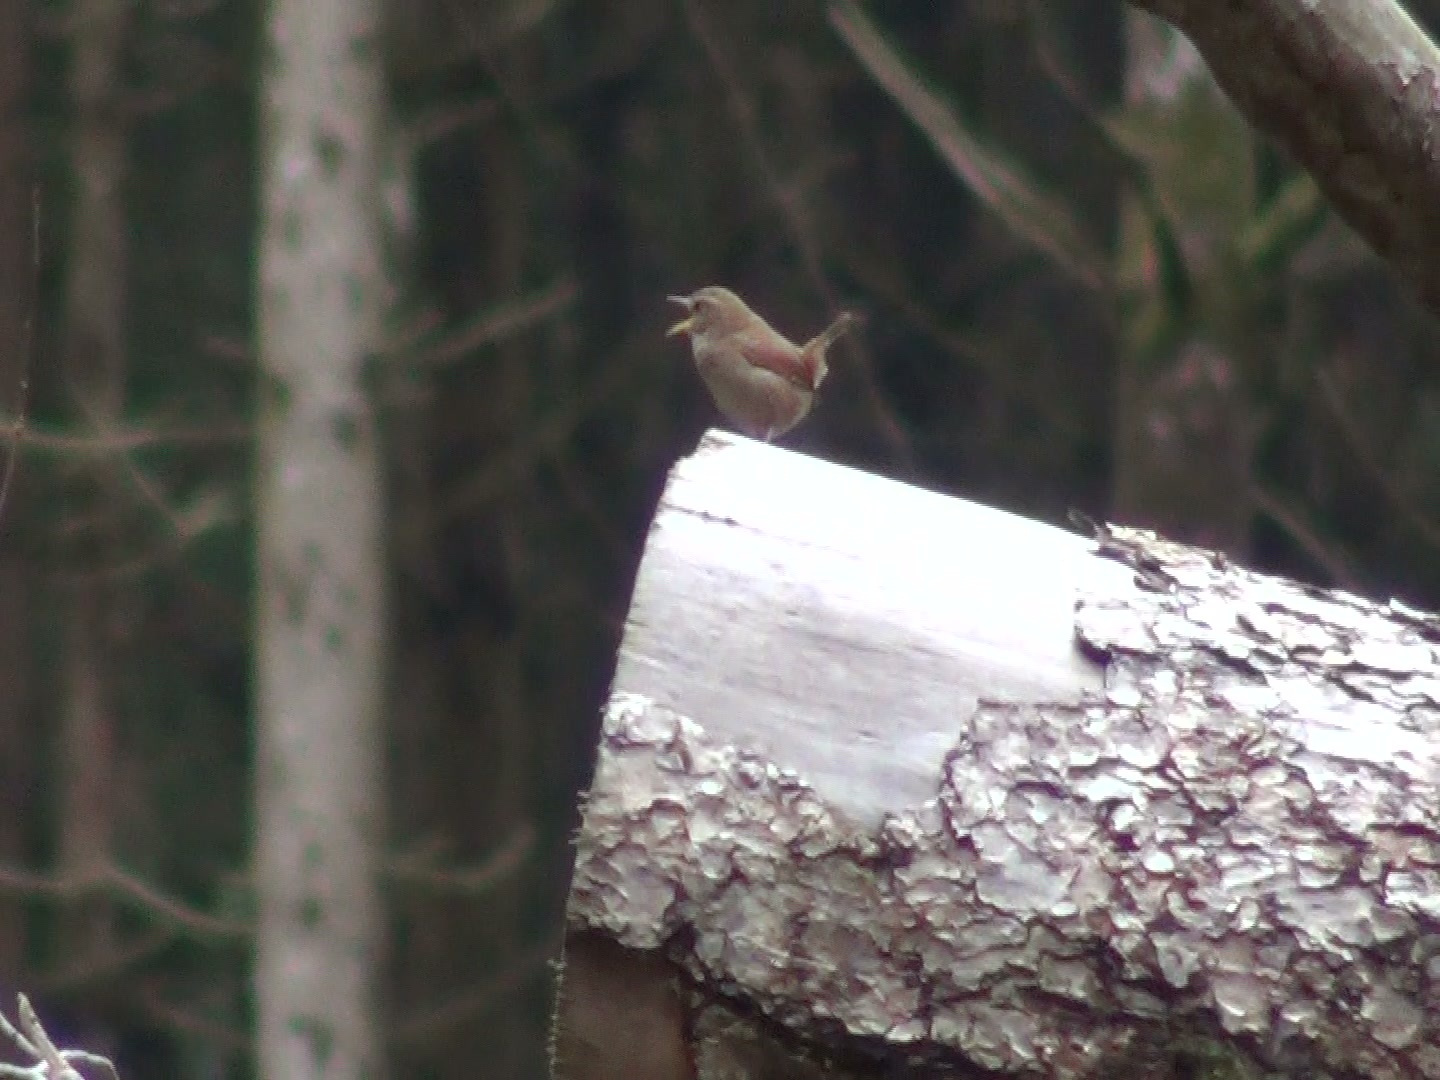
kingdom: Animalia
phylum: Chordata
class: Aves
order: Passeriformes
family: Troglodytidae
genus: Troglodytes
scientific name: Troglodytes troglodytes
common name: Eurasian wren
